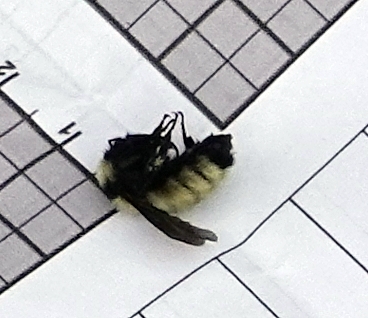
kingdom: Animalia
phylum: Arthropoda
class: Insecta
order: Hymenoptera
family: Apidae
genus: Bombus
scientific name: Bombus fervidus
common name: Yellow bumble bee
